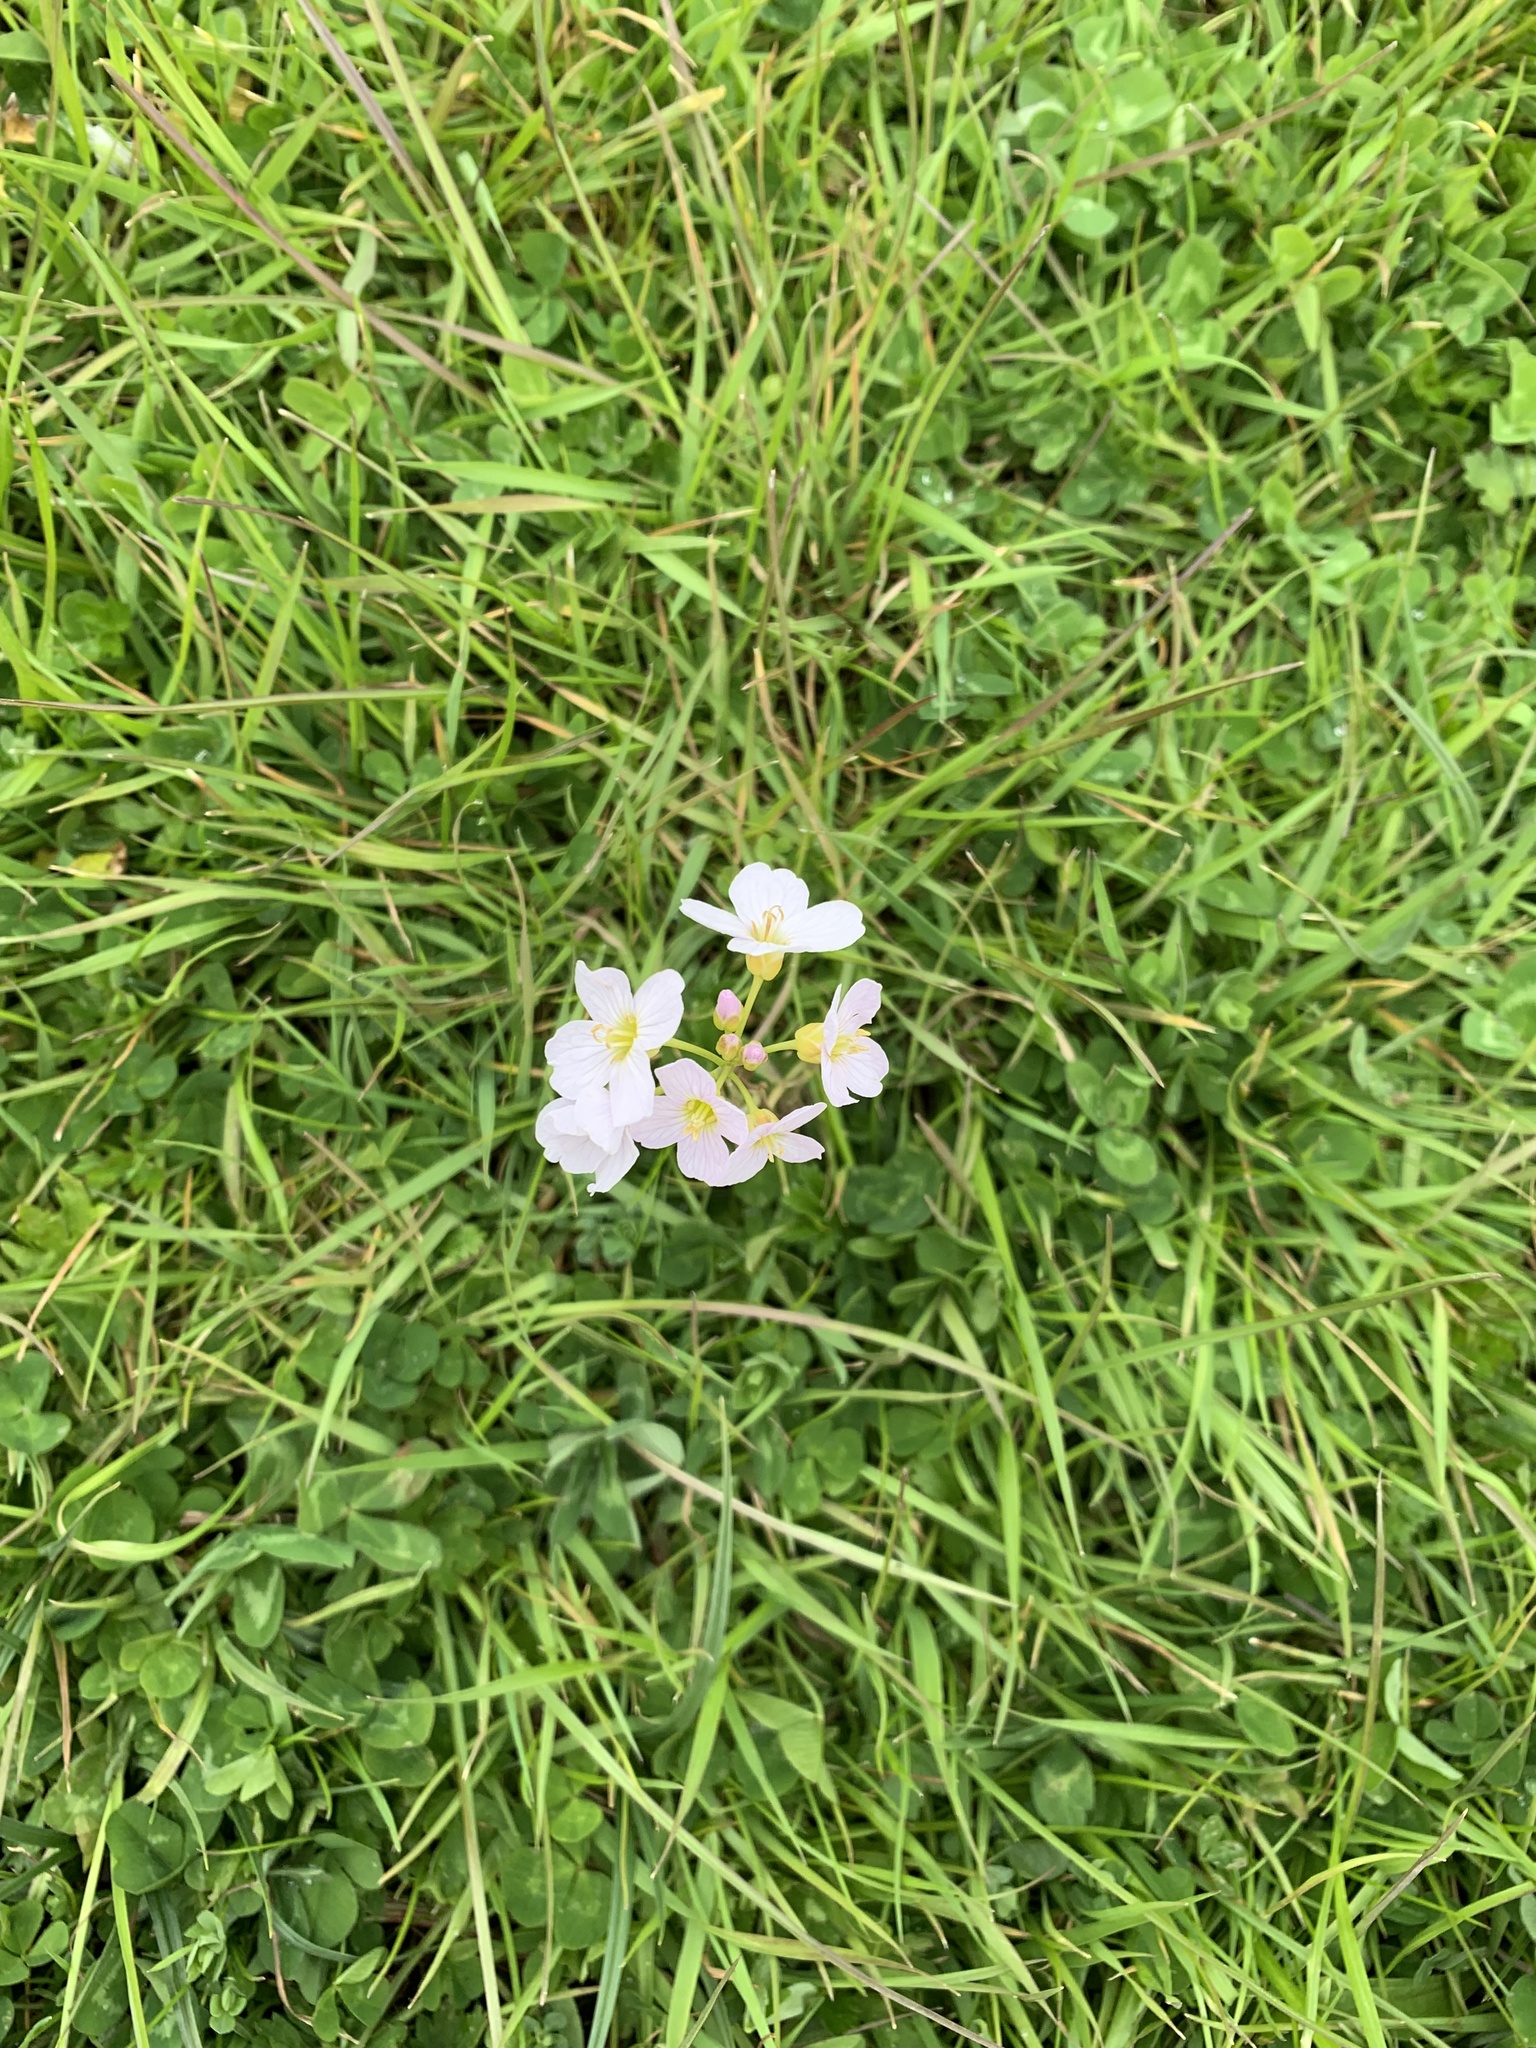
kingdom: Plantae
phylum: Tracheophyta
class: Magnoliopsida
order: Brassicales
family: Brassicaceae
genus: Cardamine
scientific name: Cardamine pratensis
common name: Cuckoo flower
